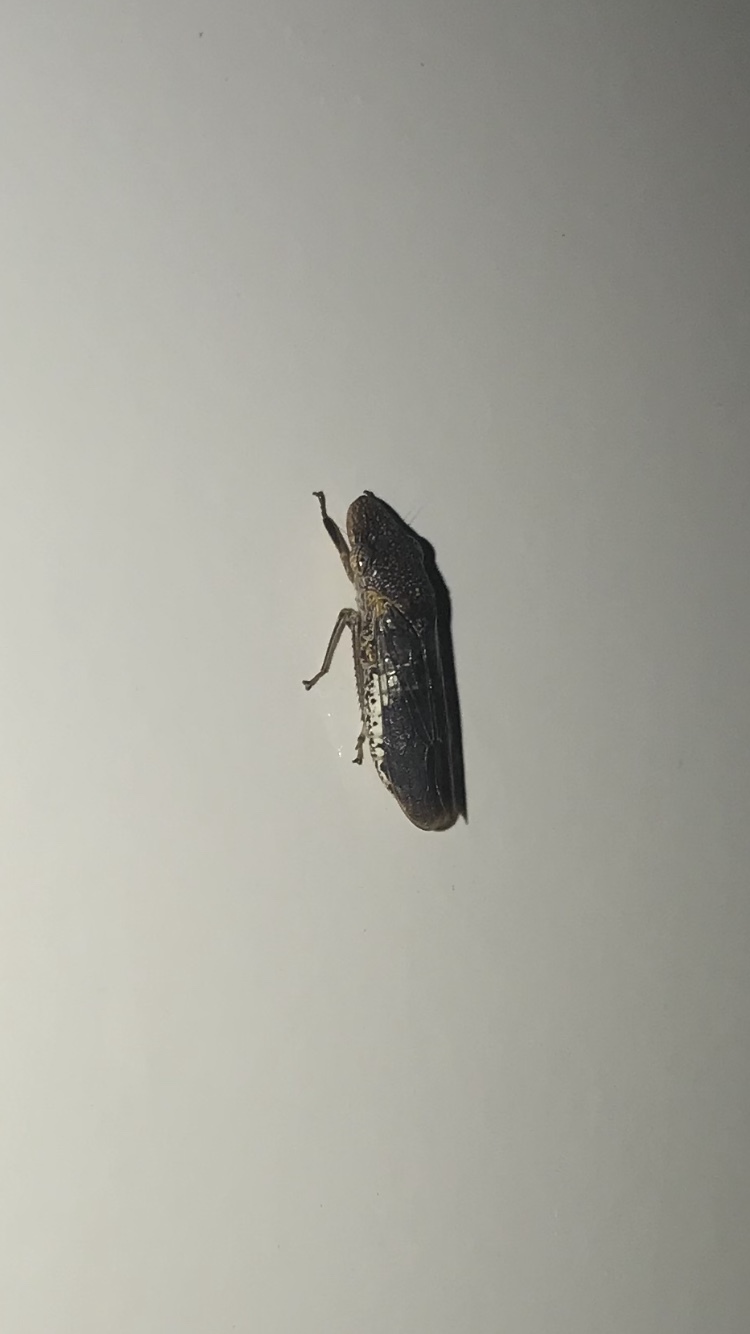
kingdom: Animalia
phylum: Arthropoda
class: Insecta
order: Hemiptera
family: Cicadellidae
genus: Homalodisca
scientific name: Homalodisca vitripennis
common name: Glassy-winged sharpshooter
